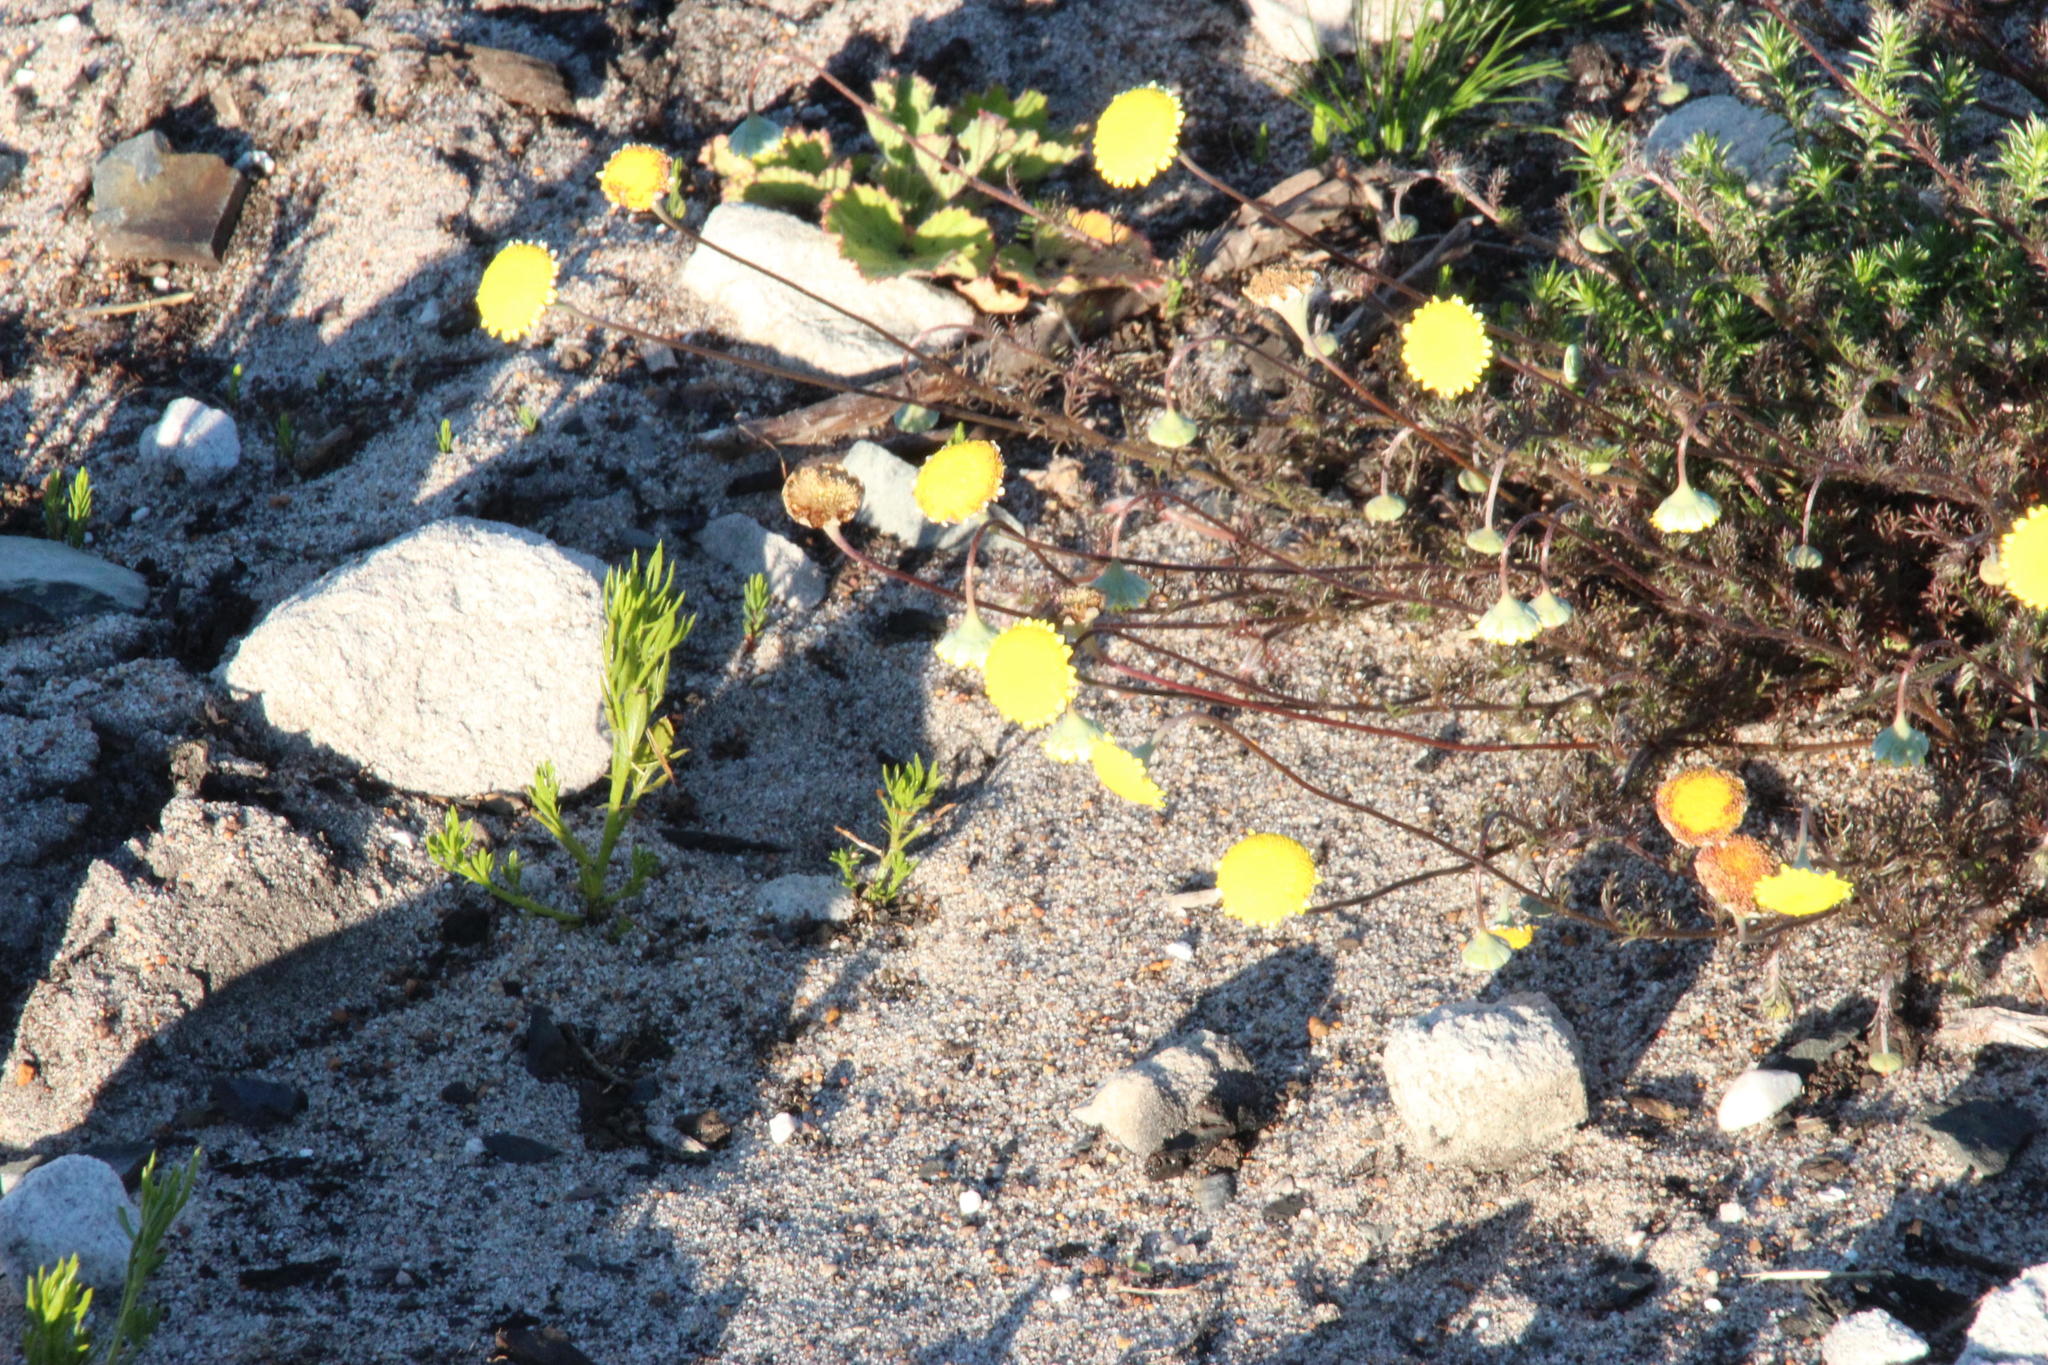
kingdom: Plantae
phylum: Tracheophyta
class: Magnoliopsida
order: Asterales
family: Asteraceae
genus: Cotula
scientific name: Cotula pruinosa
